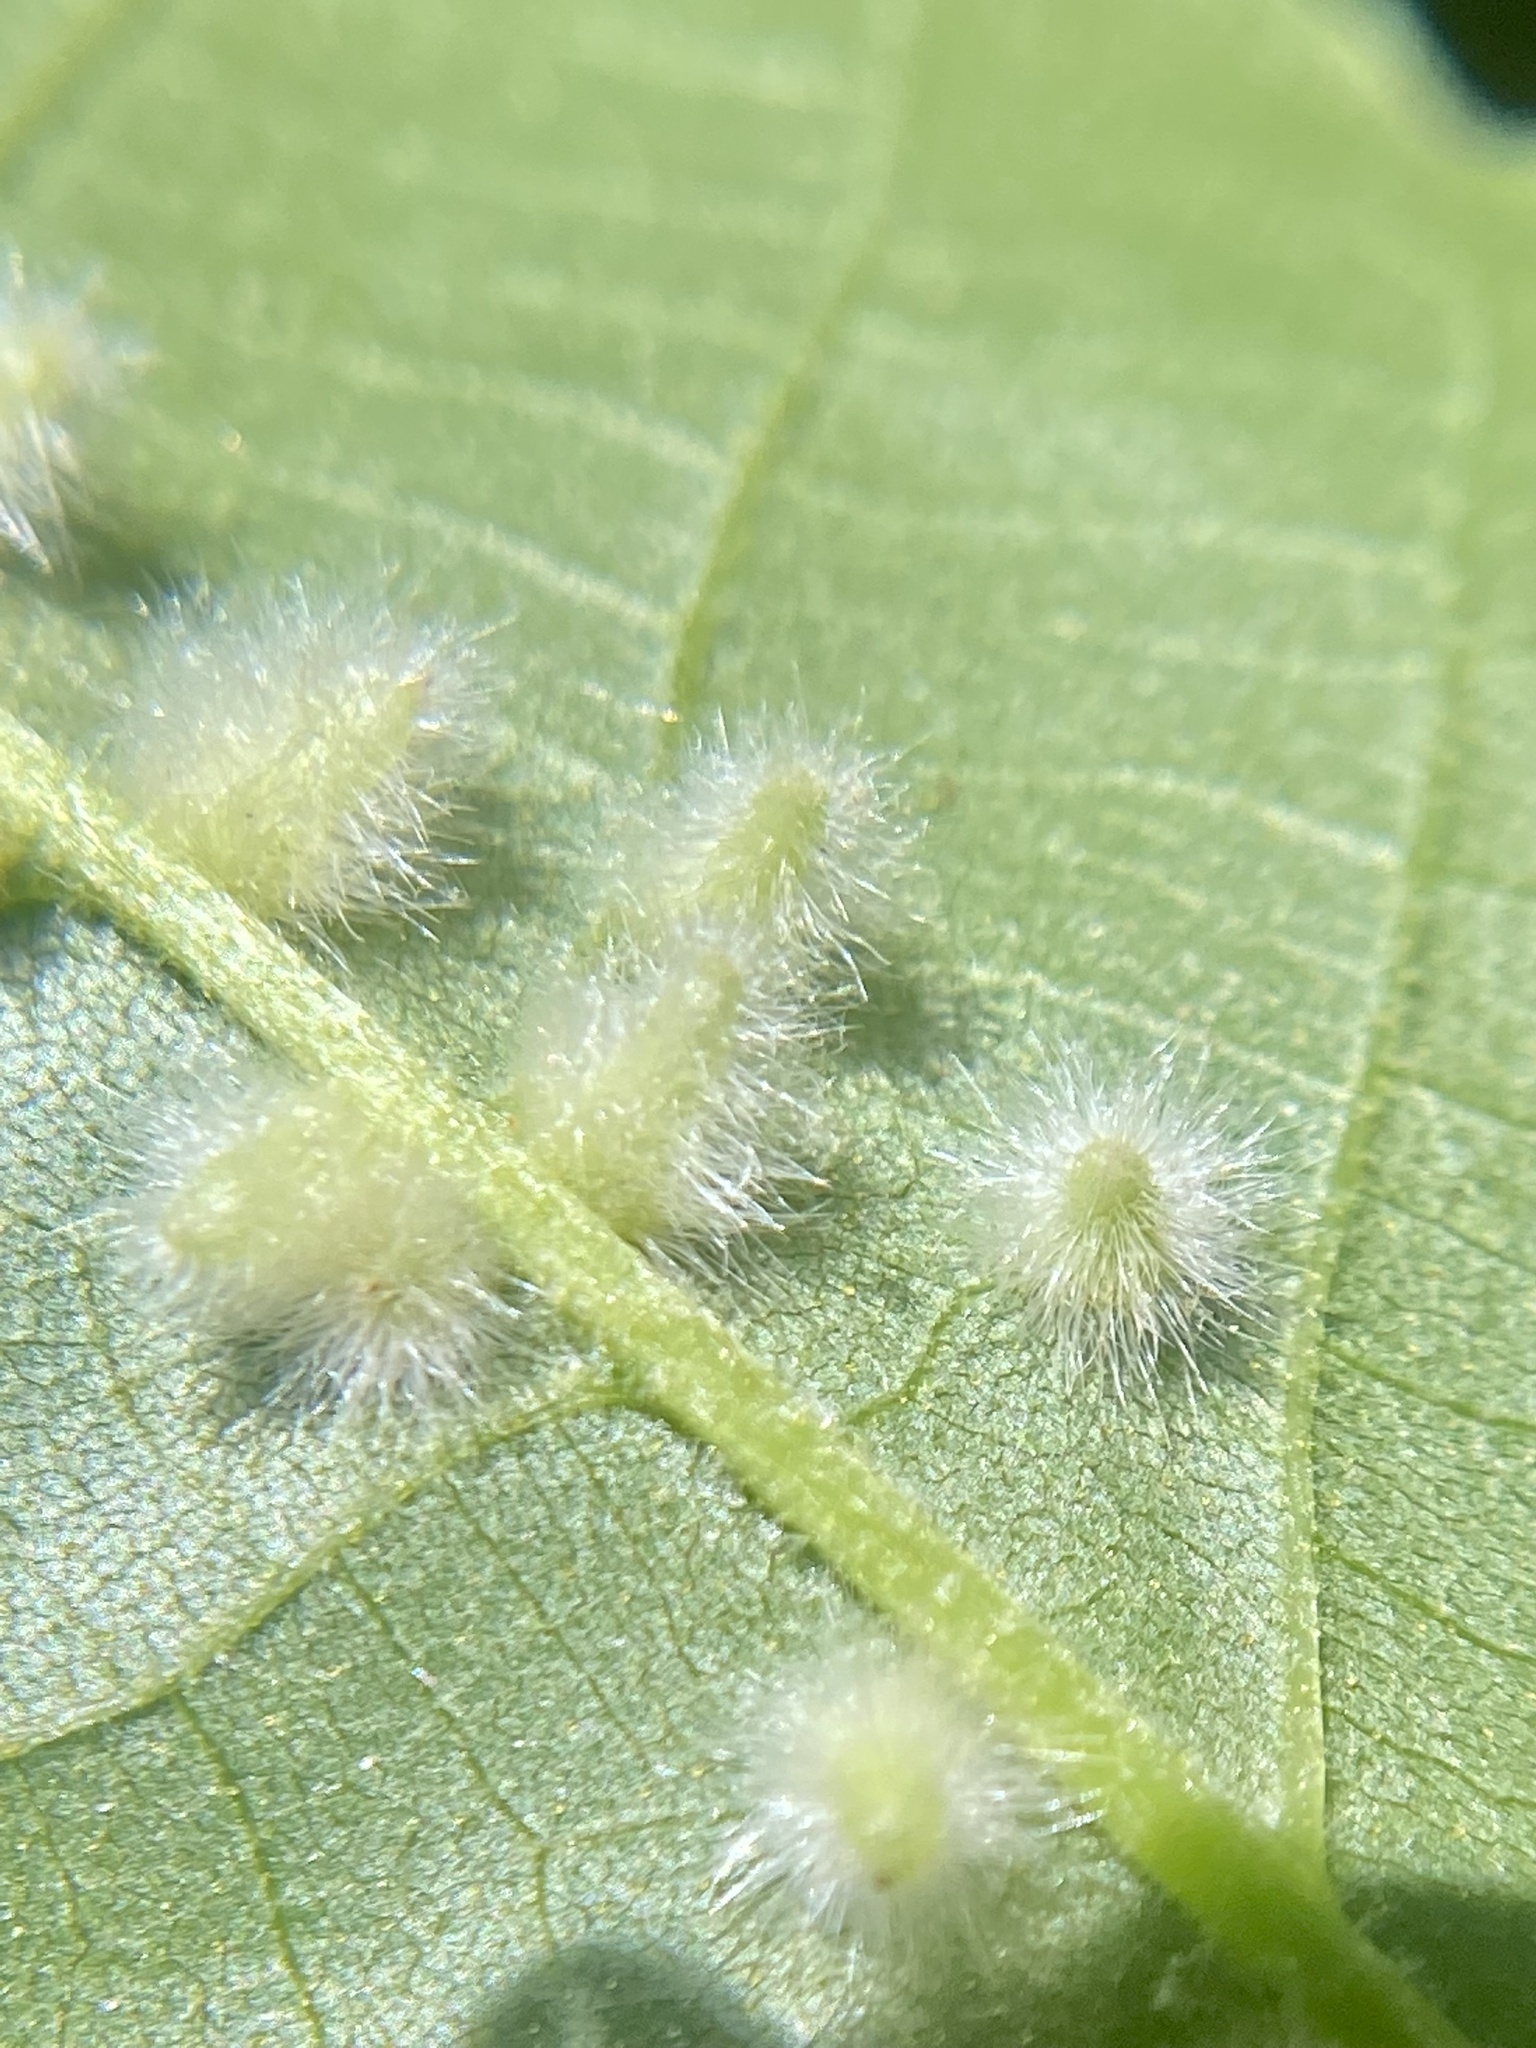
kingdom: Animalia
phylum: Arthropoda
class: Insecta
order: Diptera
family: Cecidomyiidae
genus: Caryomyia
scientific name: Caryomyia albipilosa
